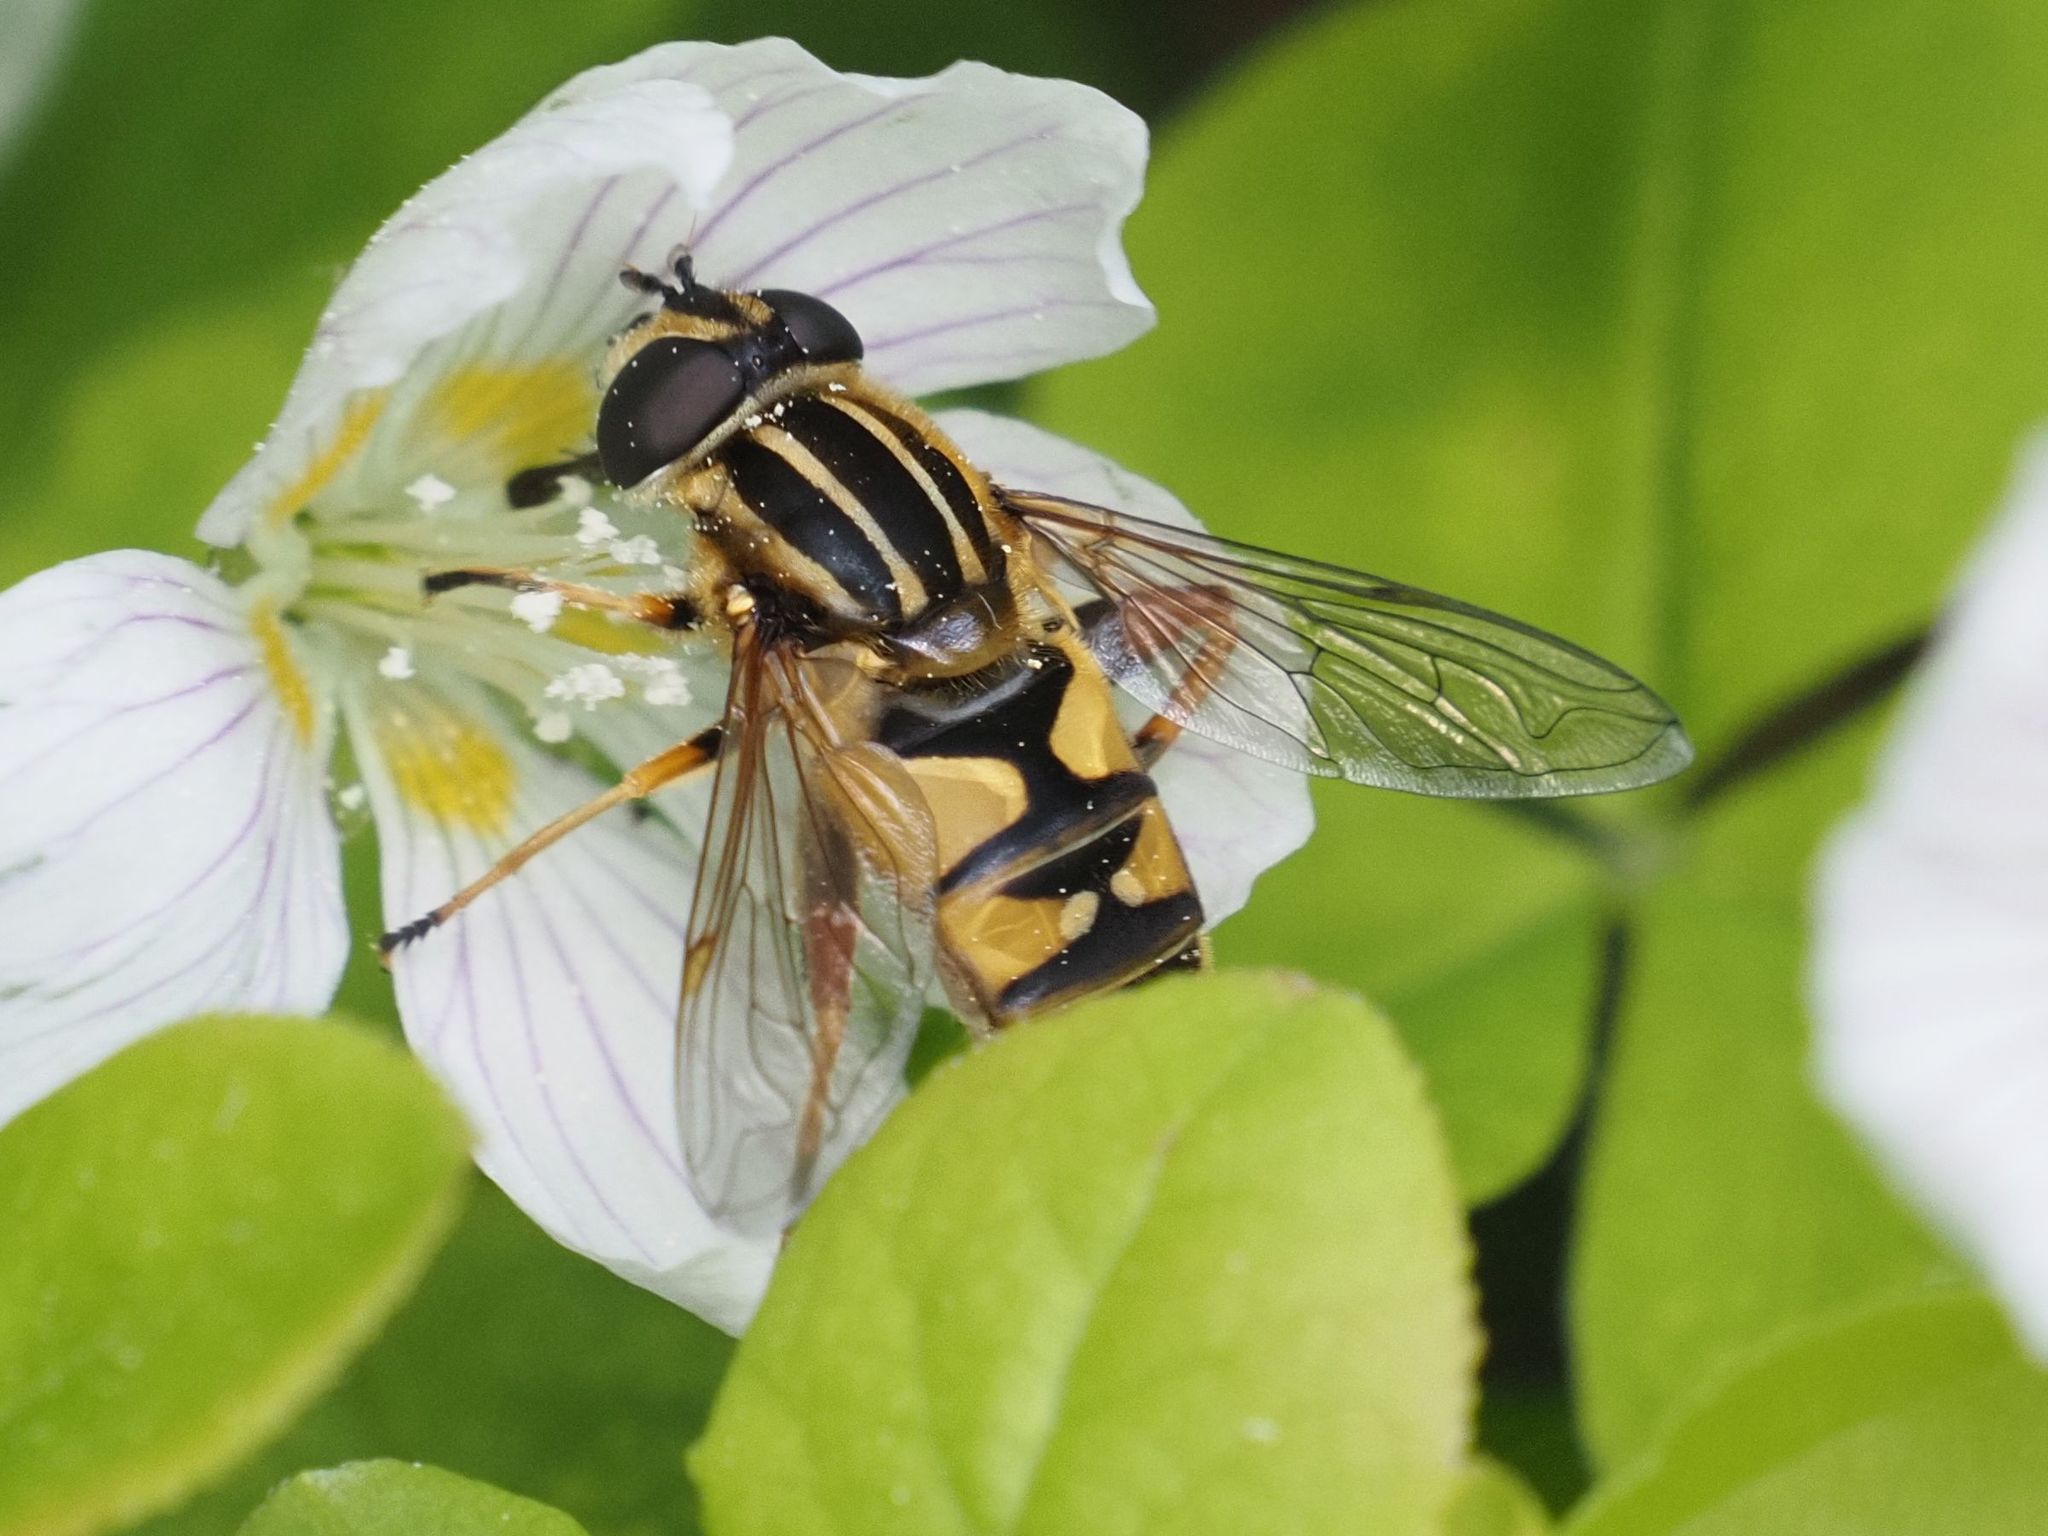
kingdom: Animalia
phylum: Arthropoda
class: Insecta
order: Diptera
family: Syrphidae
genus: Helophilus
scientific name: Helophilus pendulus
